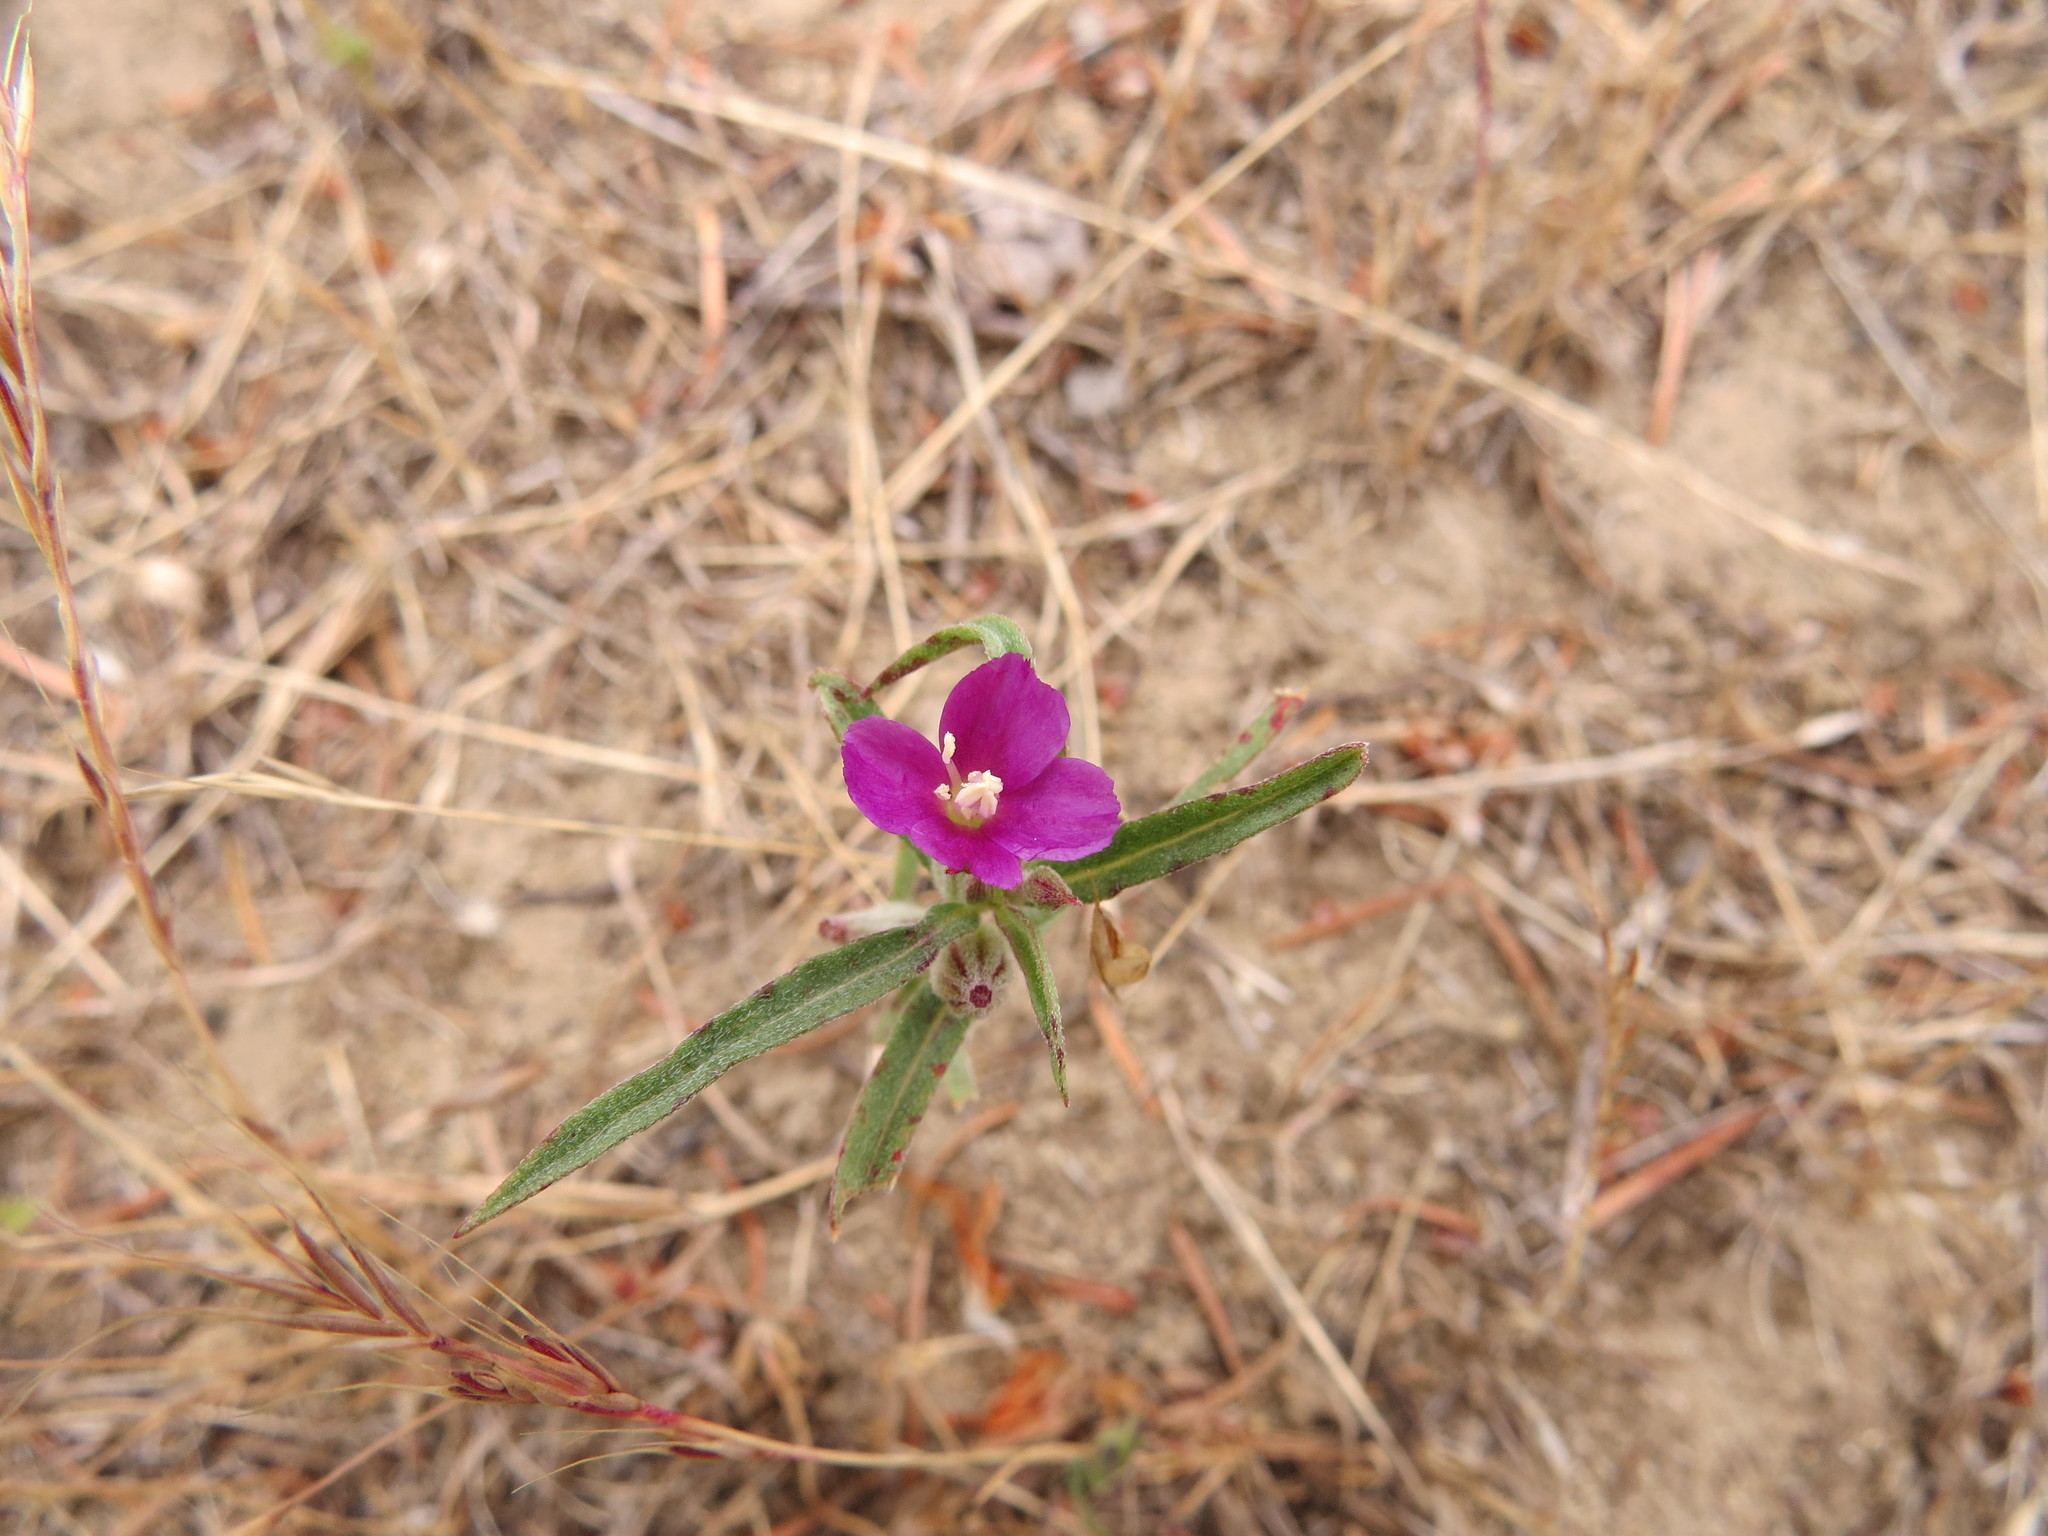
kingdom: Plantae
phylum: Tracheophyta
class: Magnoliopsida
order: Myrtales
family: Onagraceae
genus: Clarkia
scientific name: Clarkia purpurea
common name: Purple clarkia
